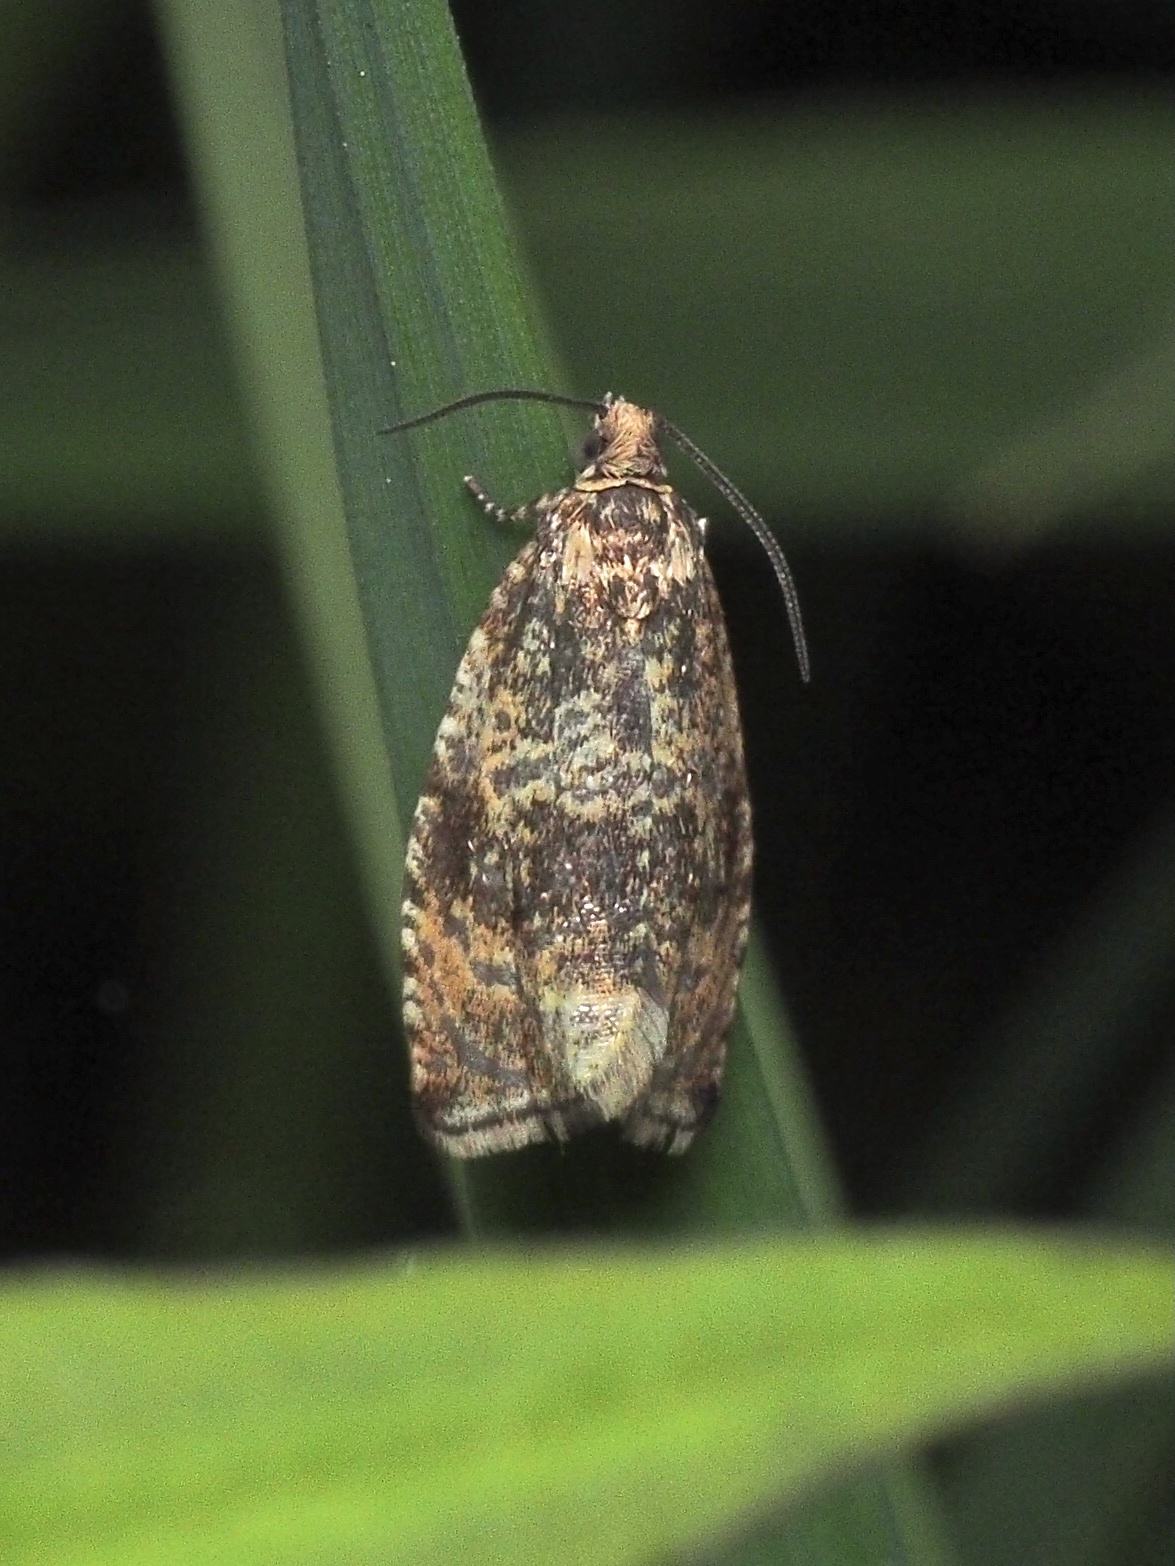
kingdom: Animalia
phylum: Arthropoda
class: Insecta
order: Lepidoptera
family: Tortricidae
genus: Syricoris
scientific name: Syricoris lacunana
